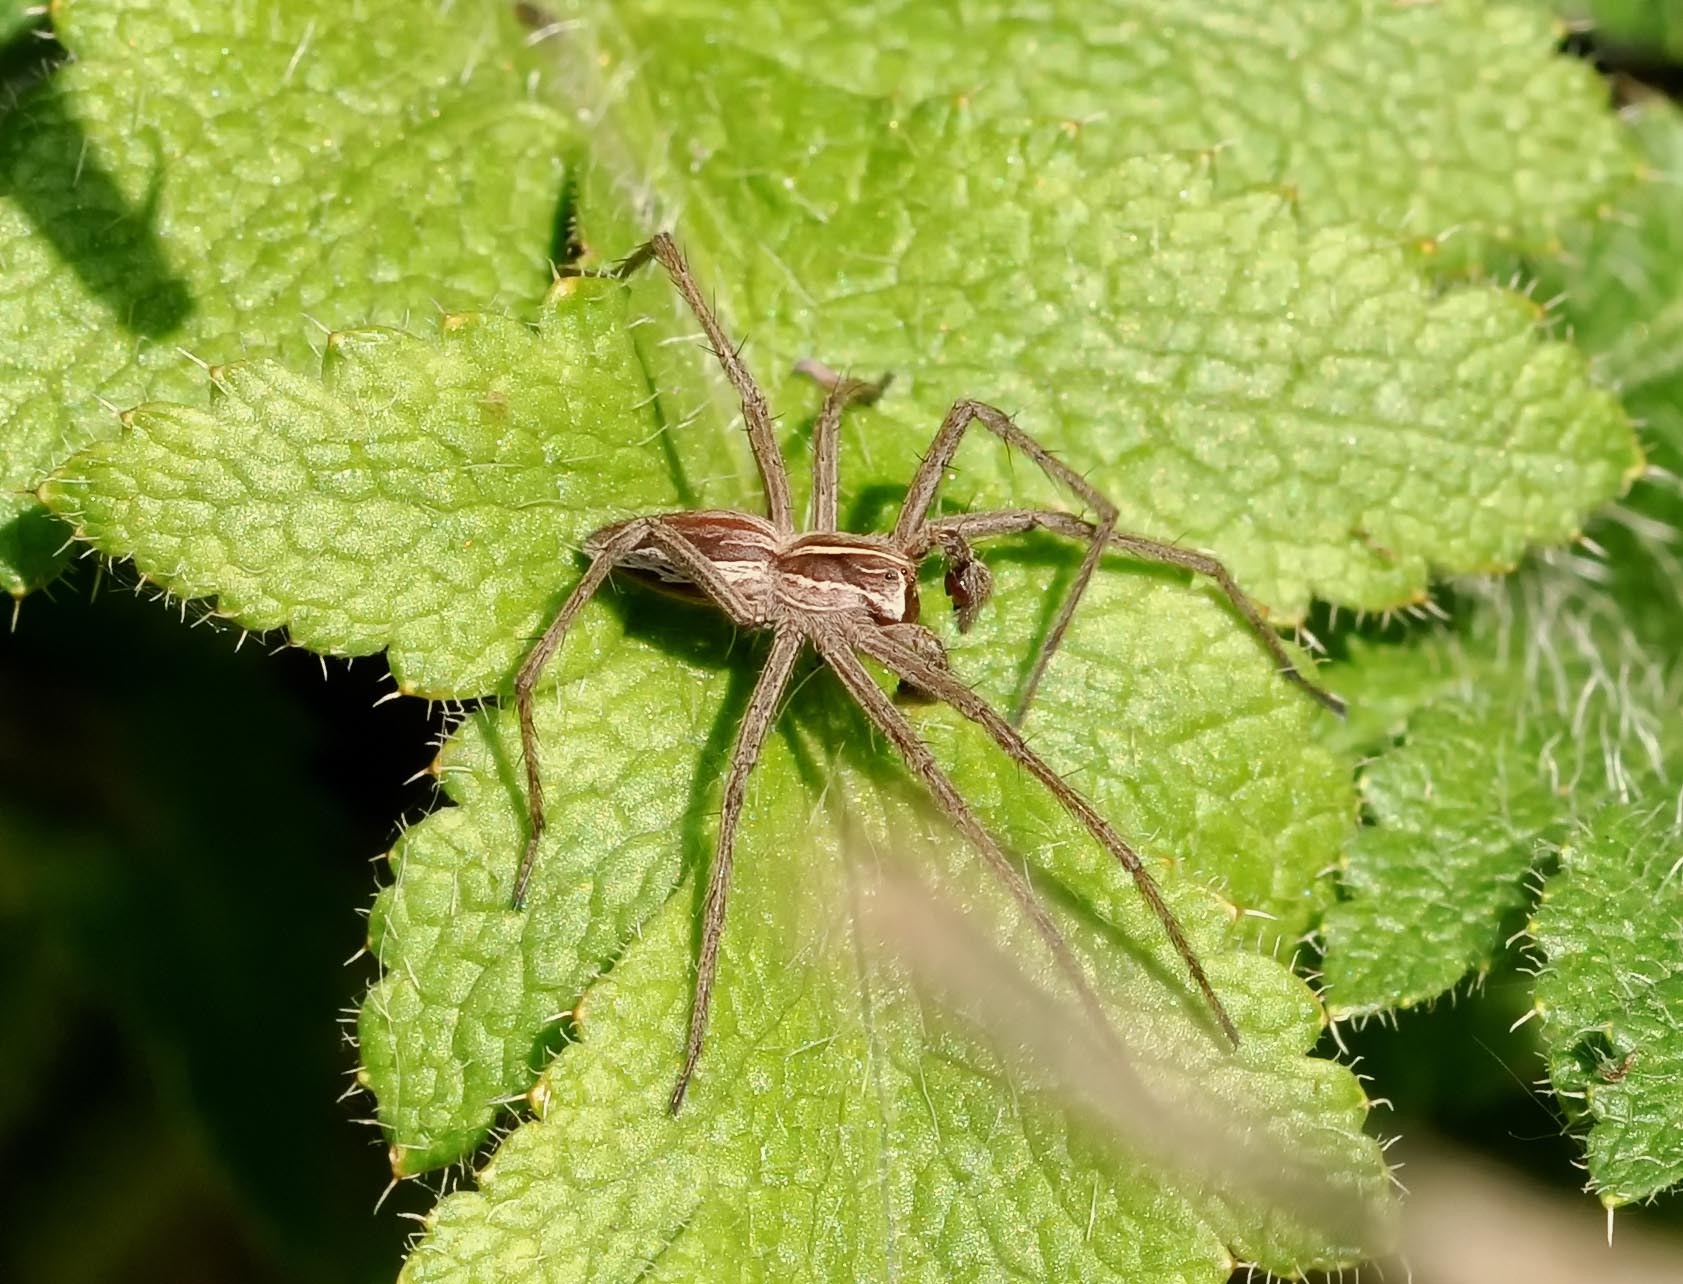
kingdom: Animalia
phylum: Arthropoda
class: Arachnida
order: Araneae
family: Pisauridae
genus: Pisaura
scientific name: Pisaura mirabilis
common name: Tent spider
